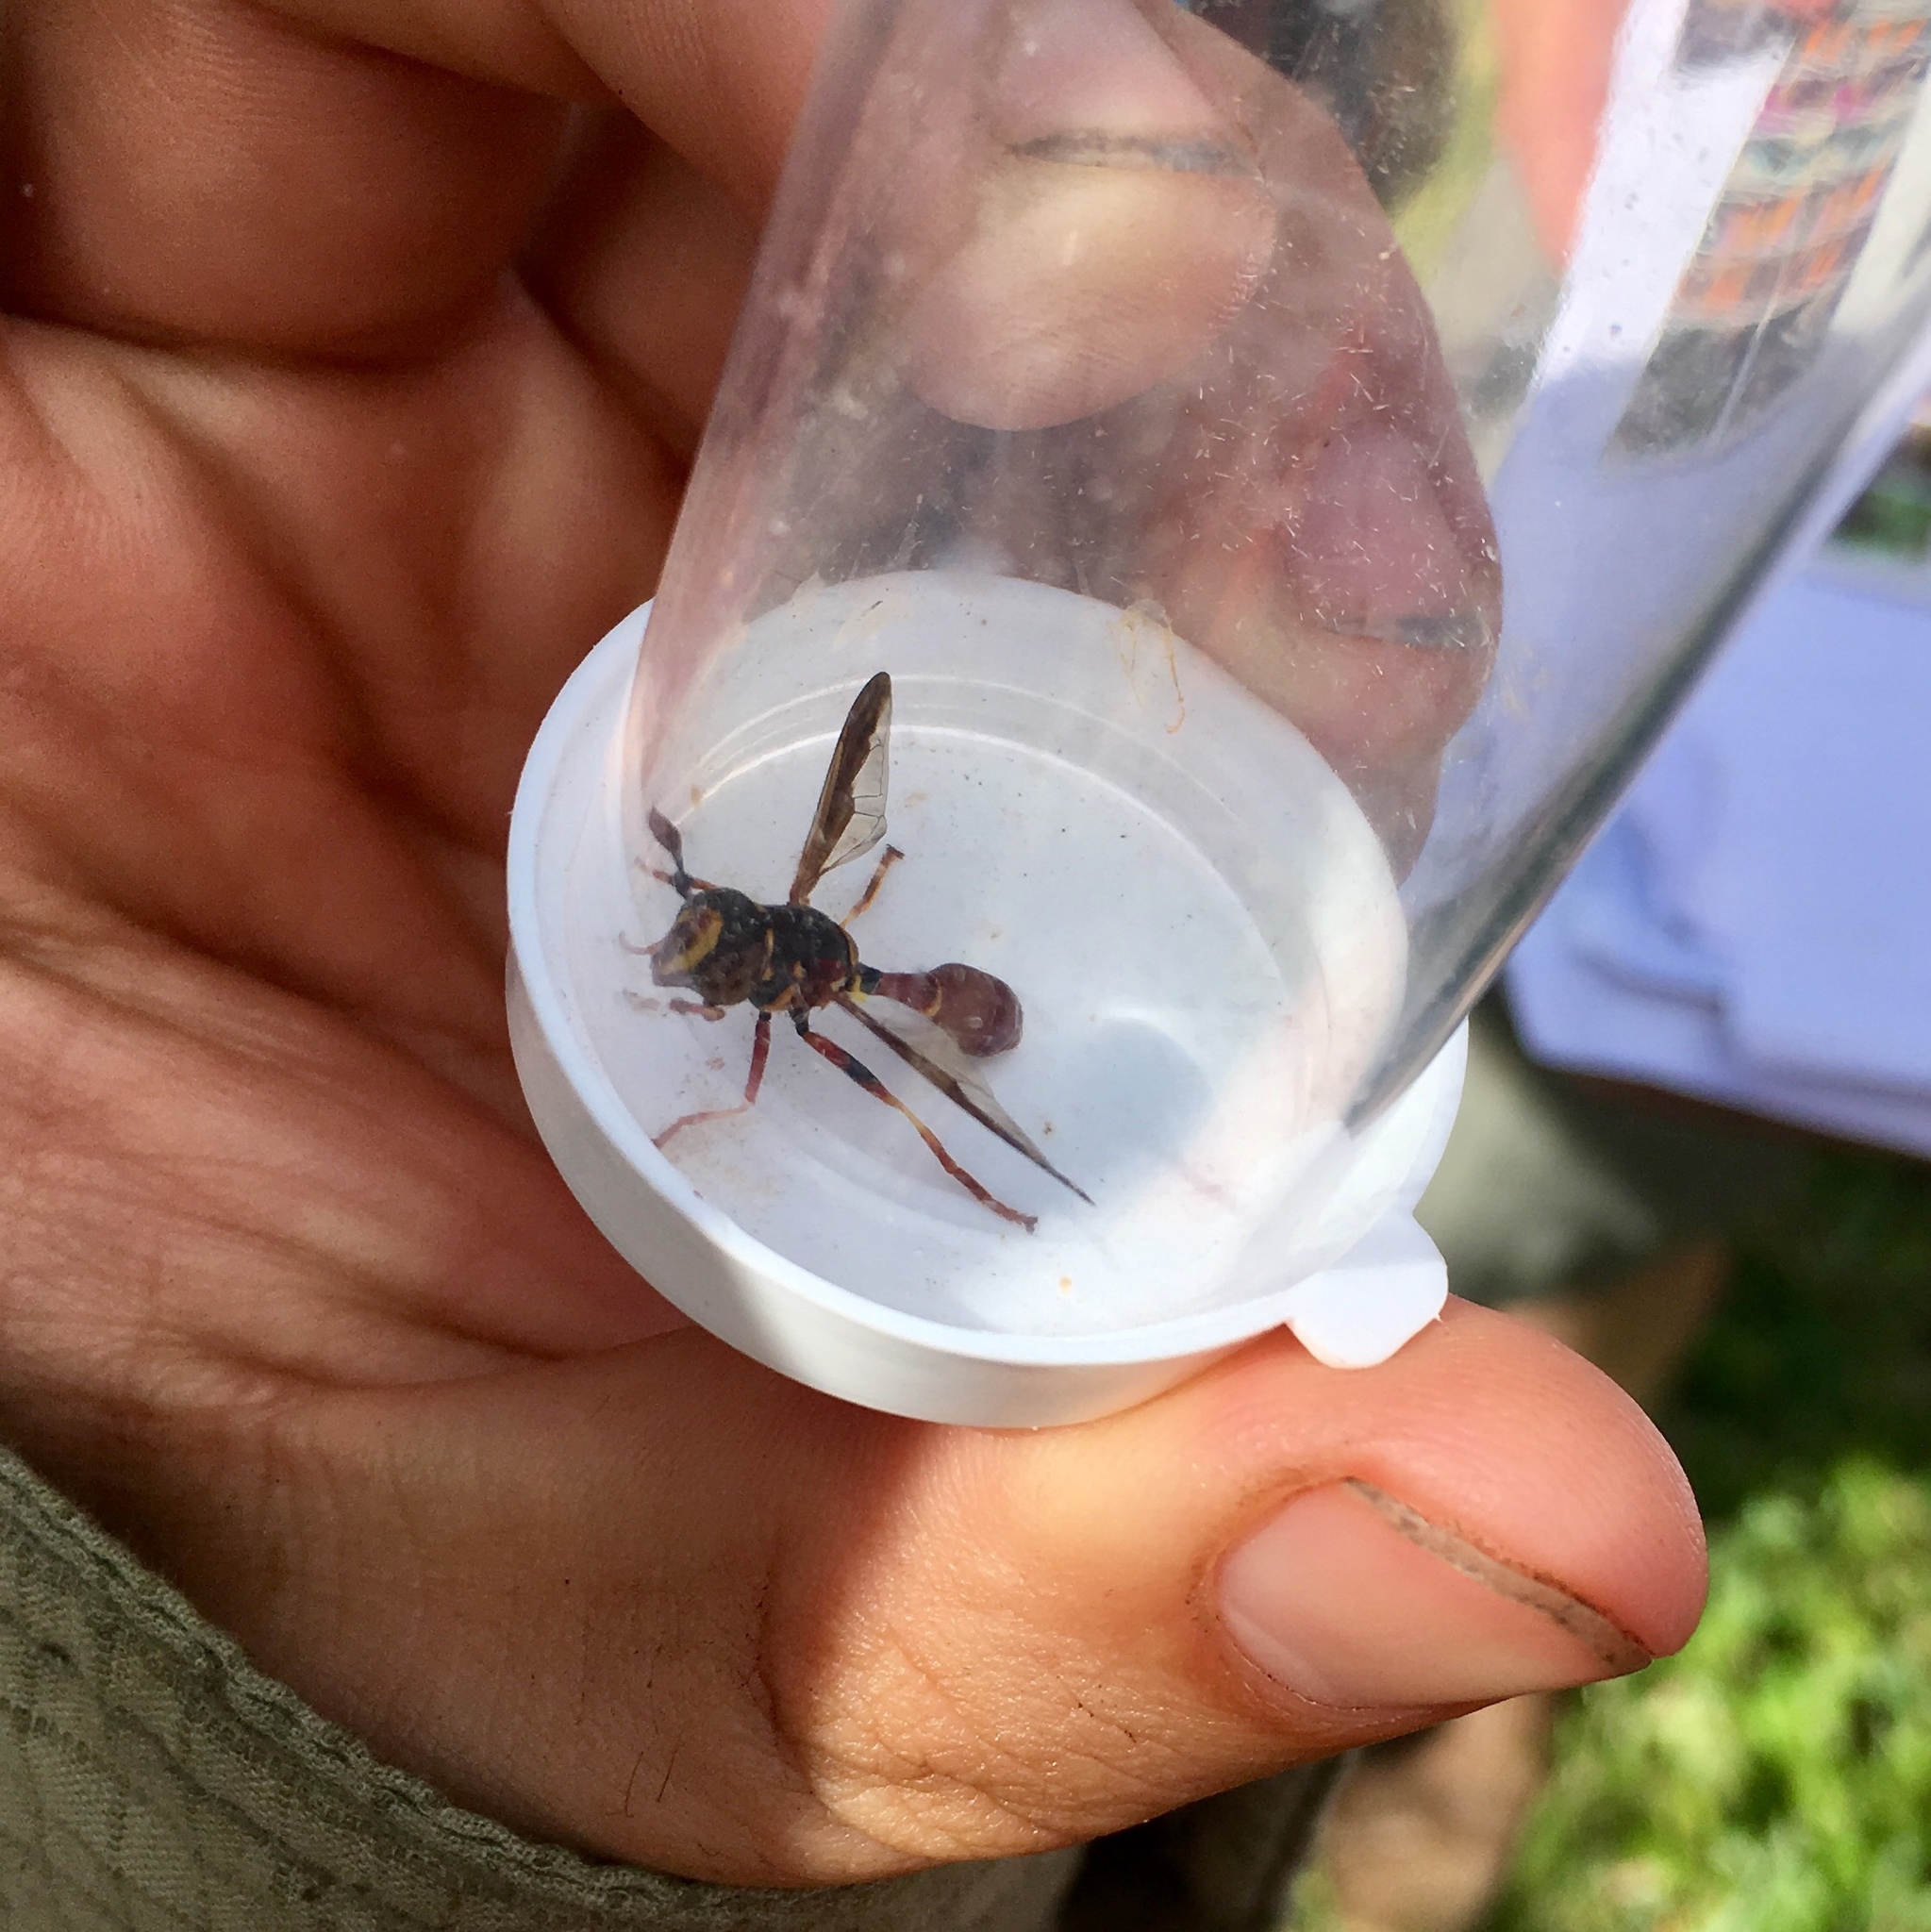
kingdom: Animalia
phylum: Arthropoda
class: Insecta
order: Diptera
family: Syrphidae
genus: Monoceromyia
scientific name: Monoceromyia floridensis
